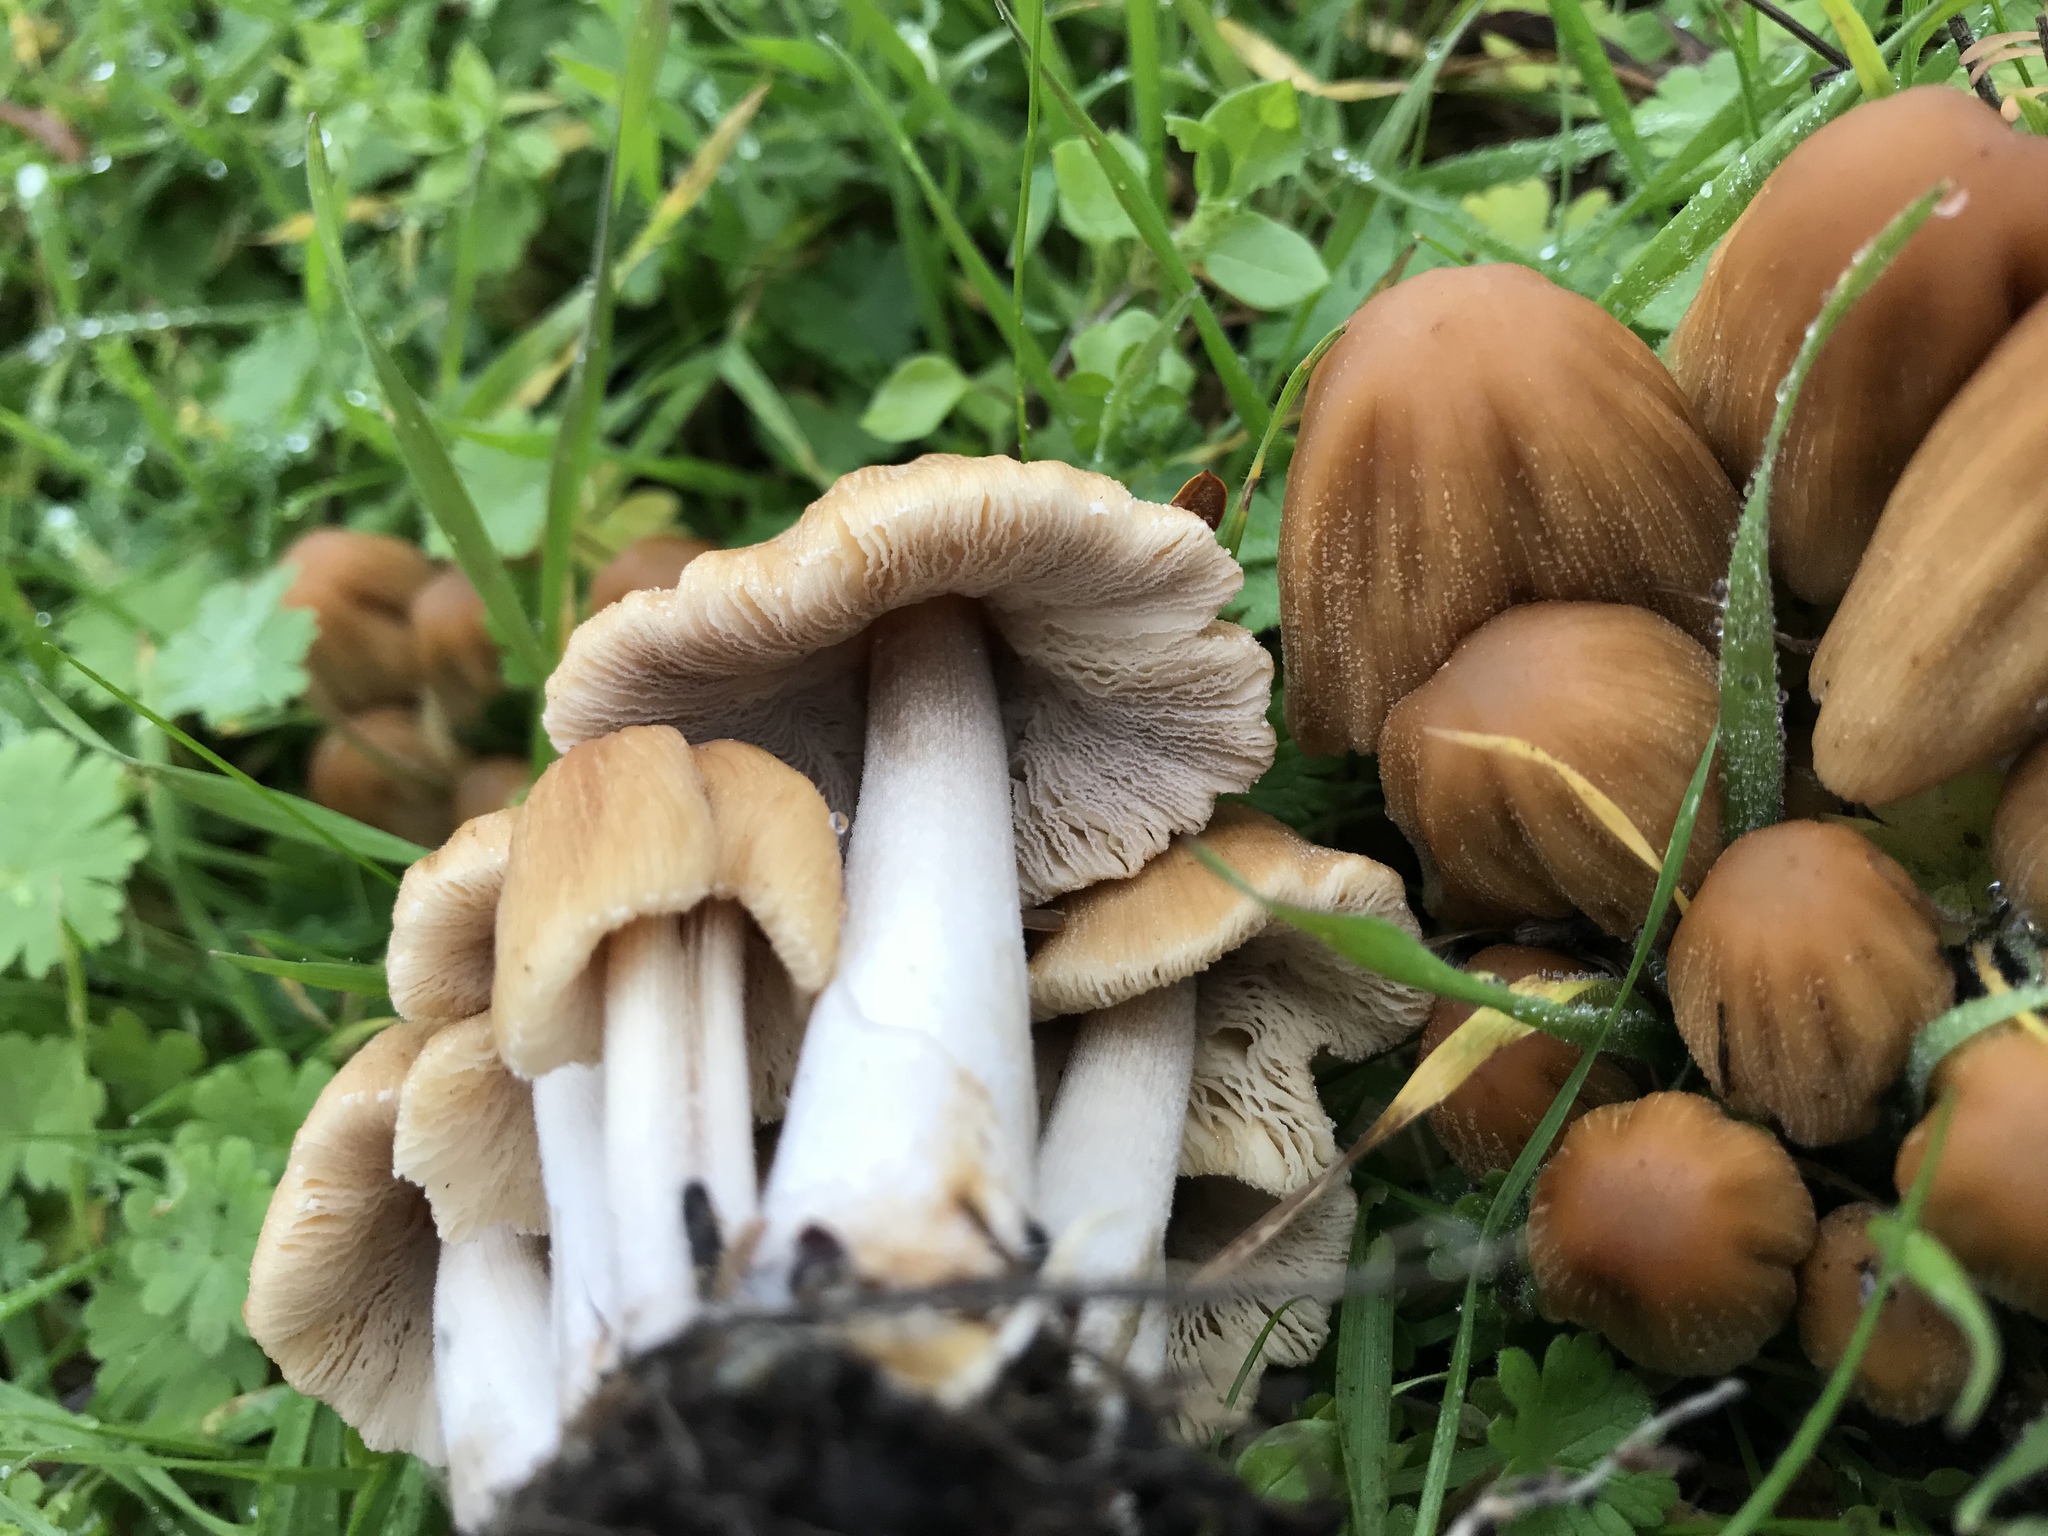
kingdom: Fungi
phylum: Basidiomycota
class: Agaricomycetes
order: Agaricales
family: Psathyrellaceae
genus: Coprinellus
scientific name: Coprinellus micaceus
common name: Glistening ink-cap
